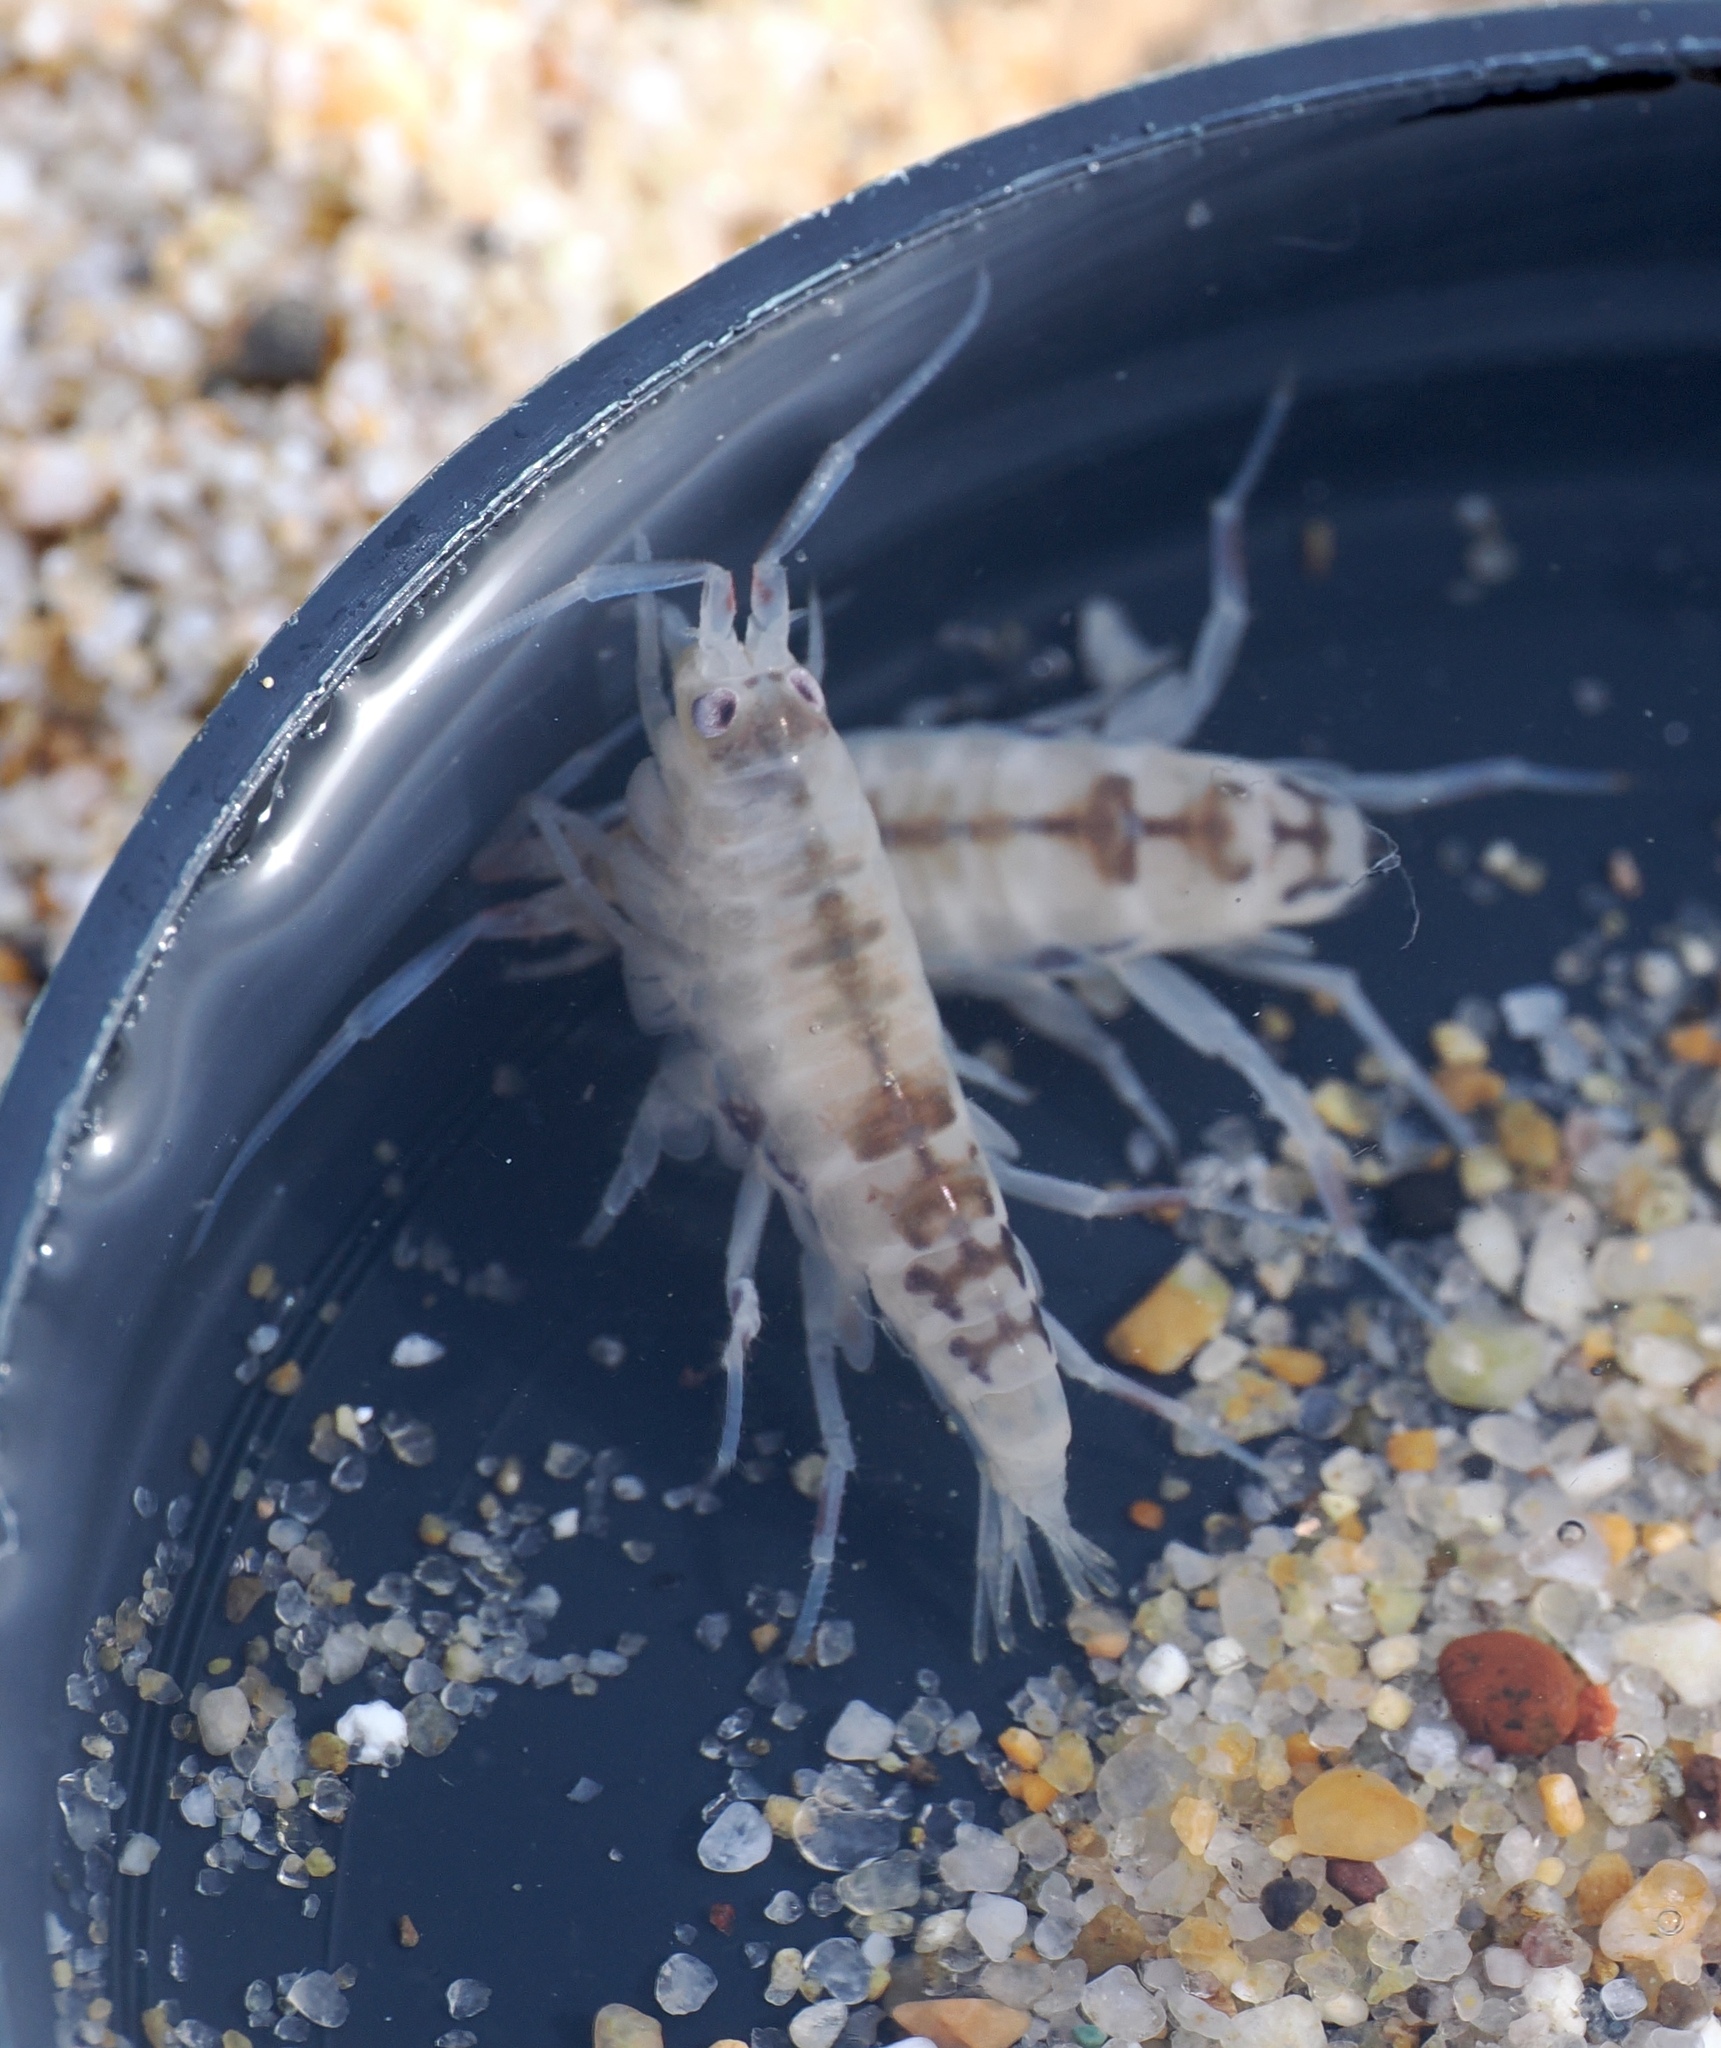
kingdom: Animalia
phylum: Arthropoda
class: Malacostraca
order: Amphipoda
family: Talitridae
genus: Megalorchestia
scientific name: Megalorchestia californiana
